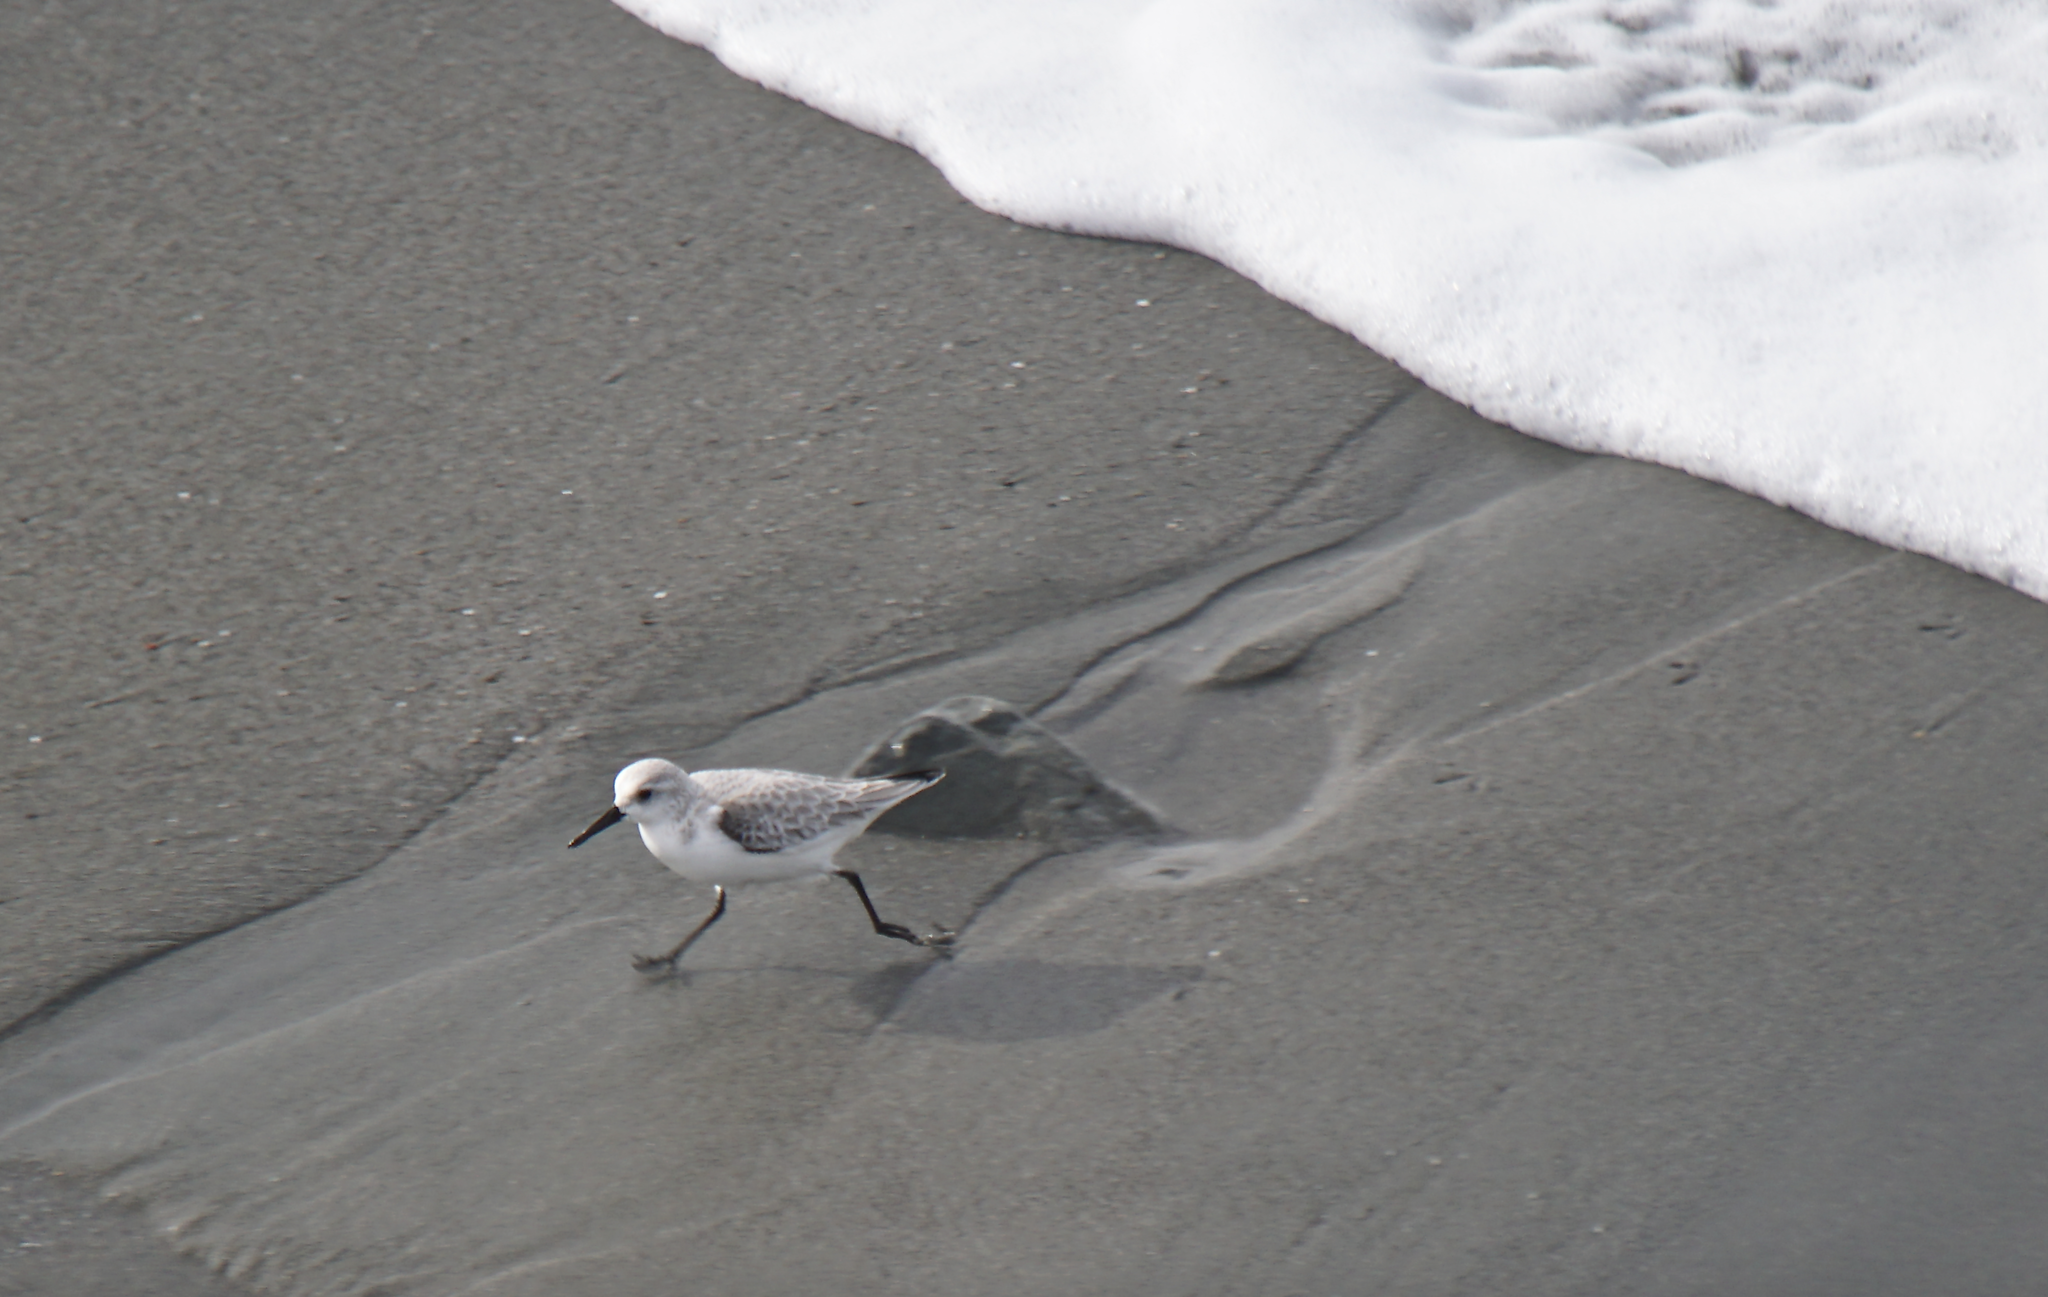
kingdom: Animalia
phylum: Chordata
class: Aves
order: Charadriiformes
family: Scolopacidae
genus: Calidris
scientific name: Calidris alba
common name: Sanderling
